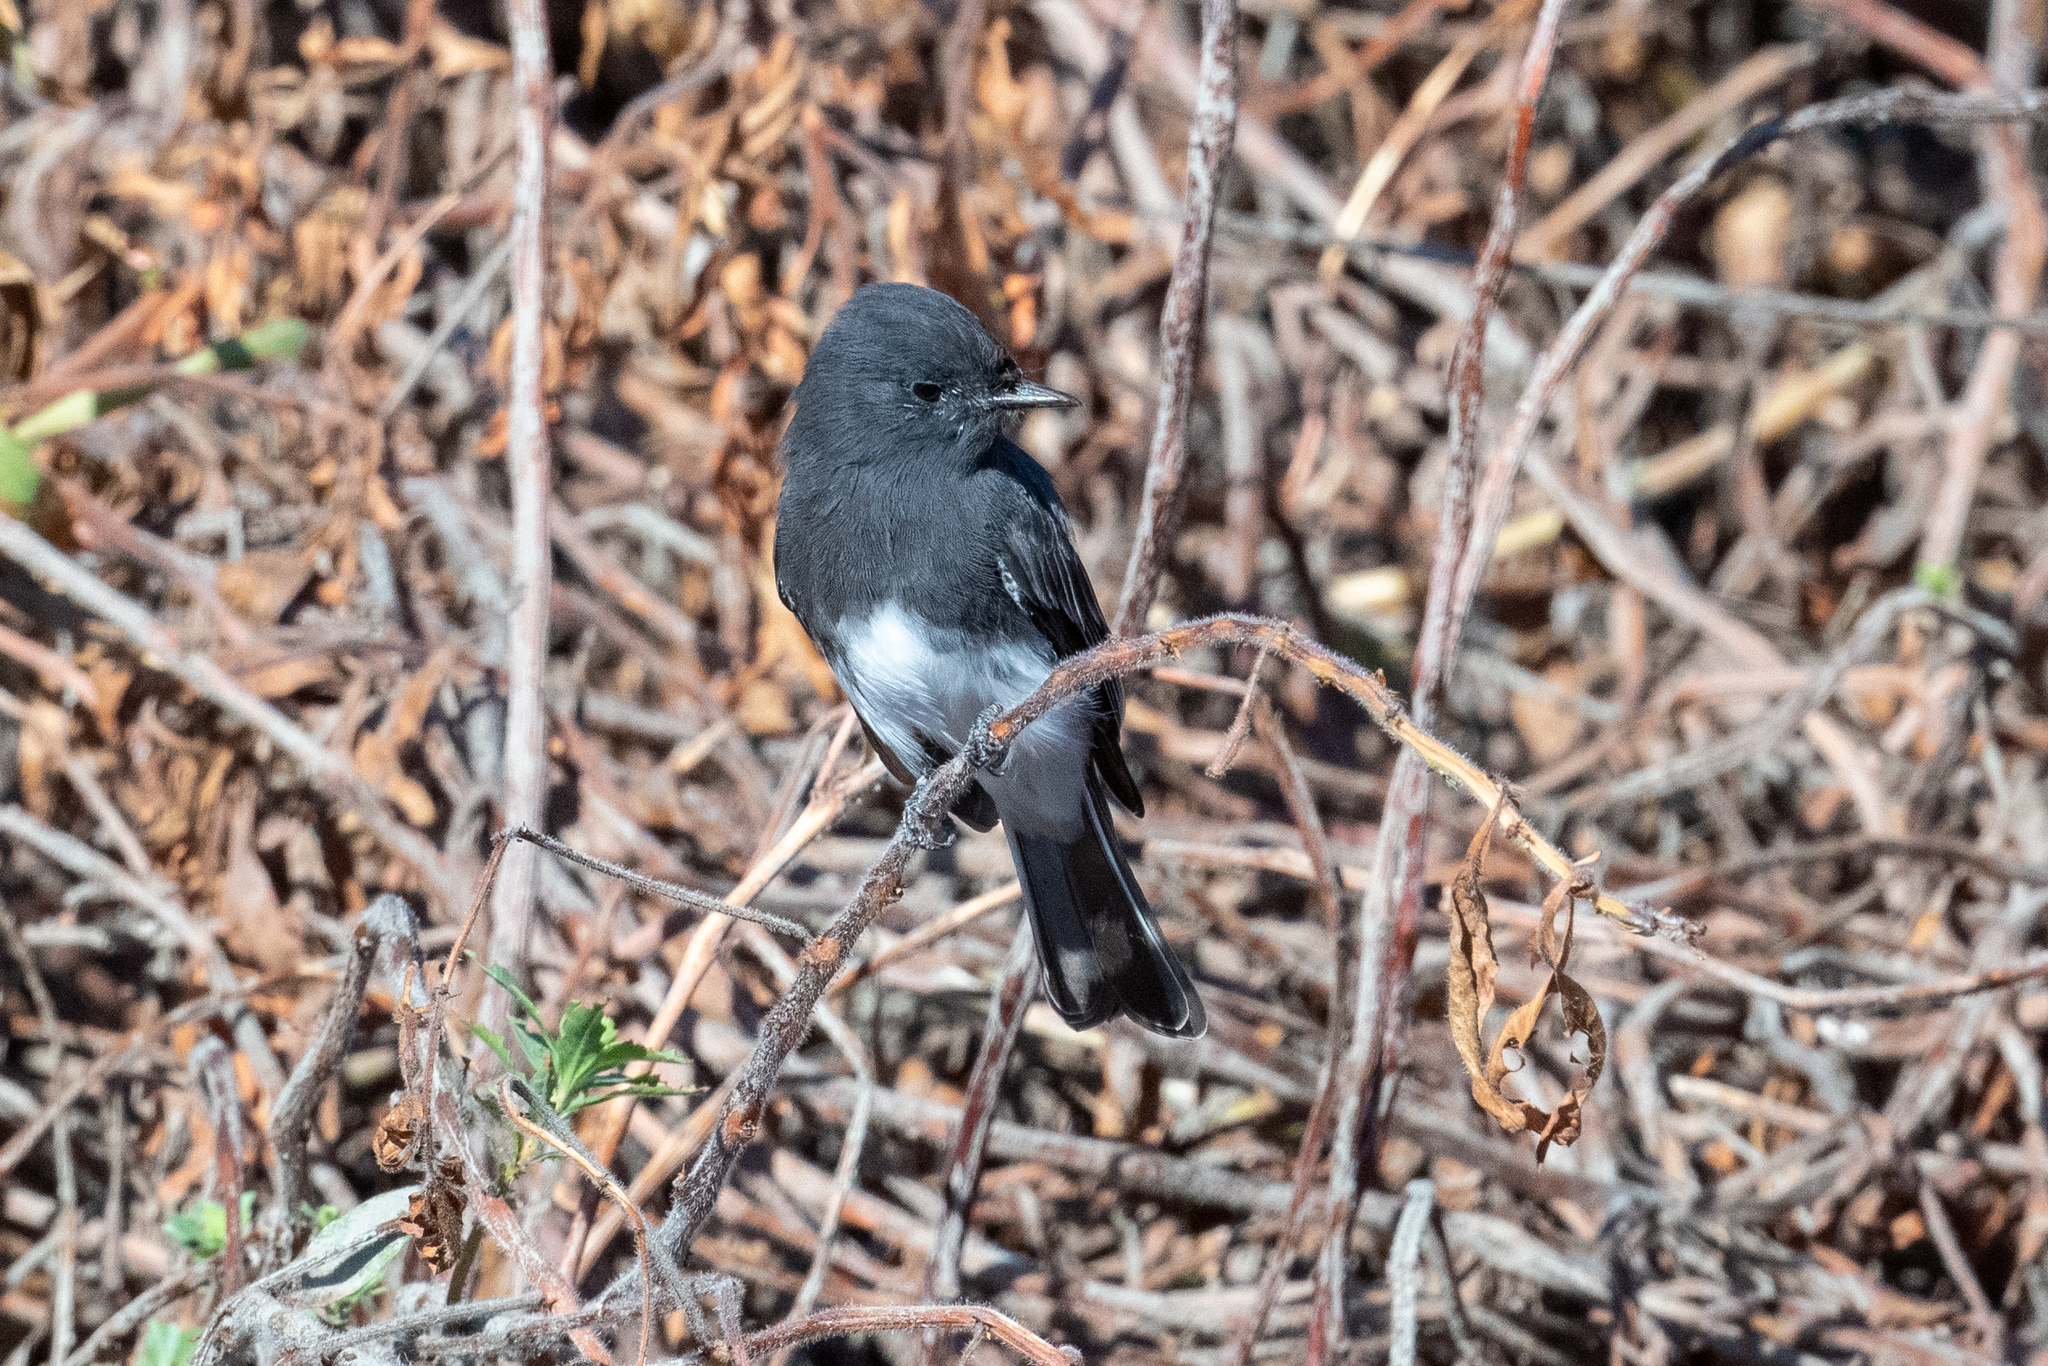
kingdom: Animalia
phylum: Chordata
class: Aves
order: Passeriformes
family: Tyrannidae
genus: Sayornis
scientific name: Sayornis nigricans
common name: Black phoebe
